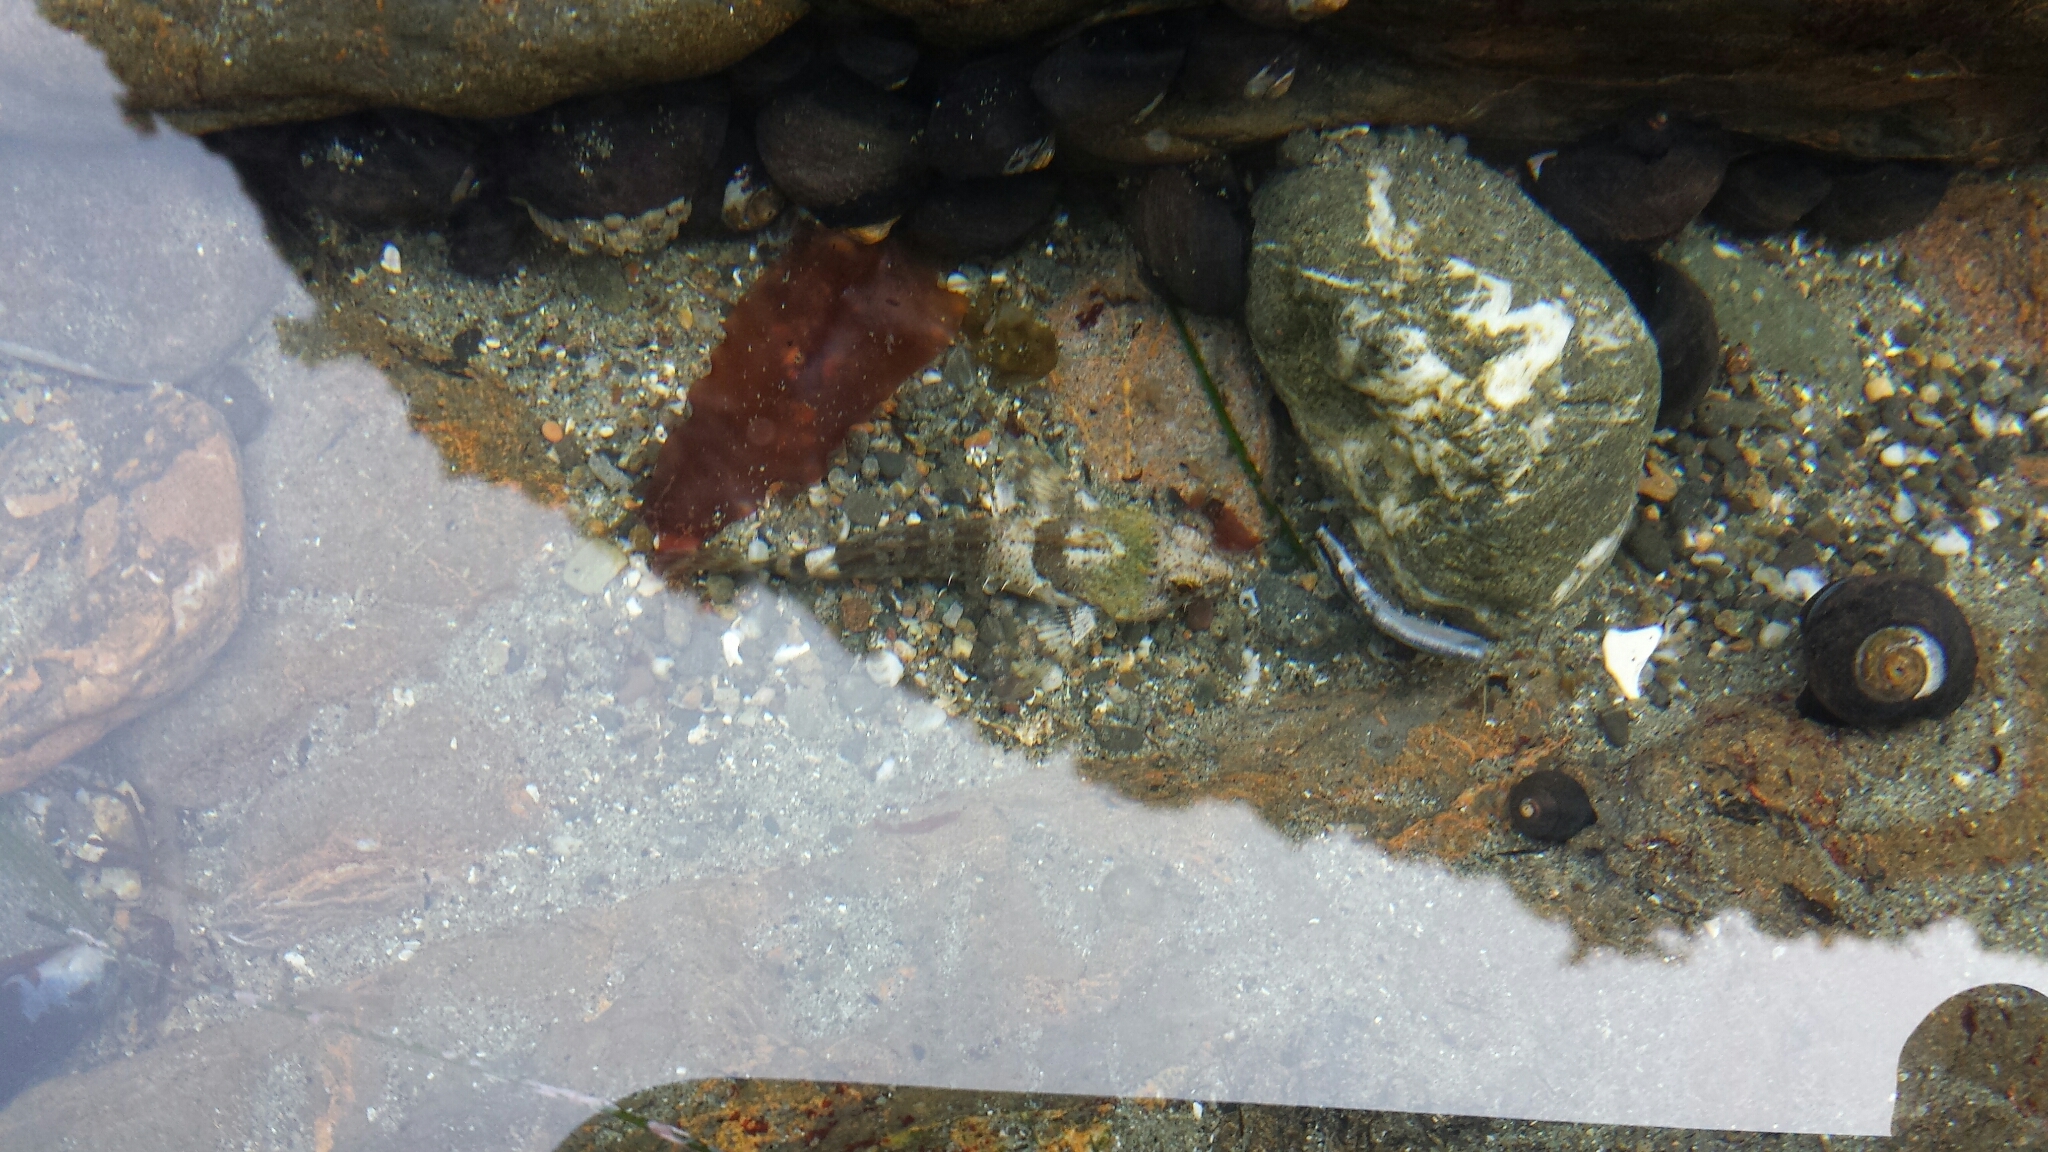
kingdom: Animalia
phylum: Chordata
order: Scorpaeniformes
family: Cottidae
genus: Clinocottus
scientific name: Clinocottus analis
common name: Woolly sculpin
